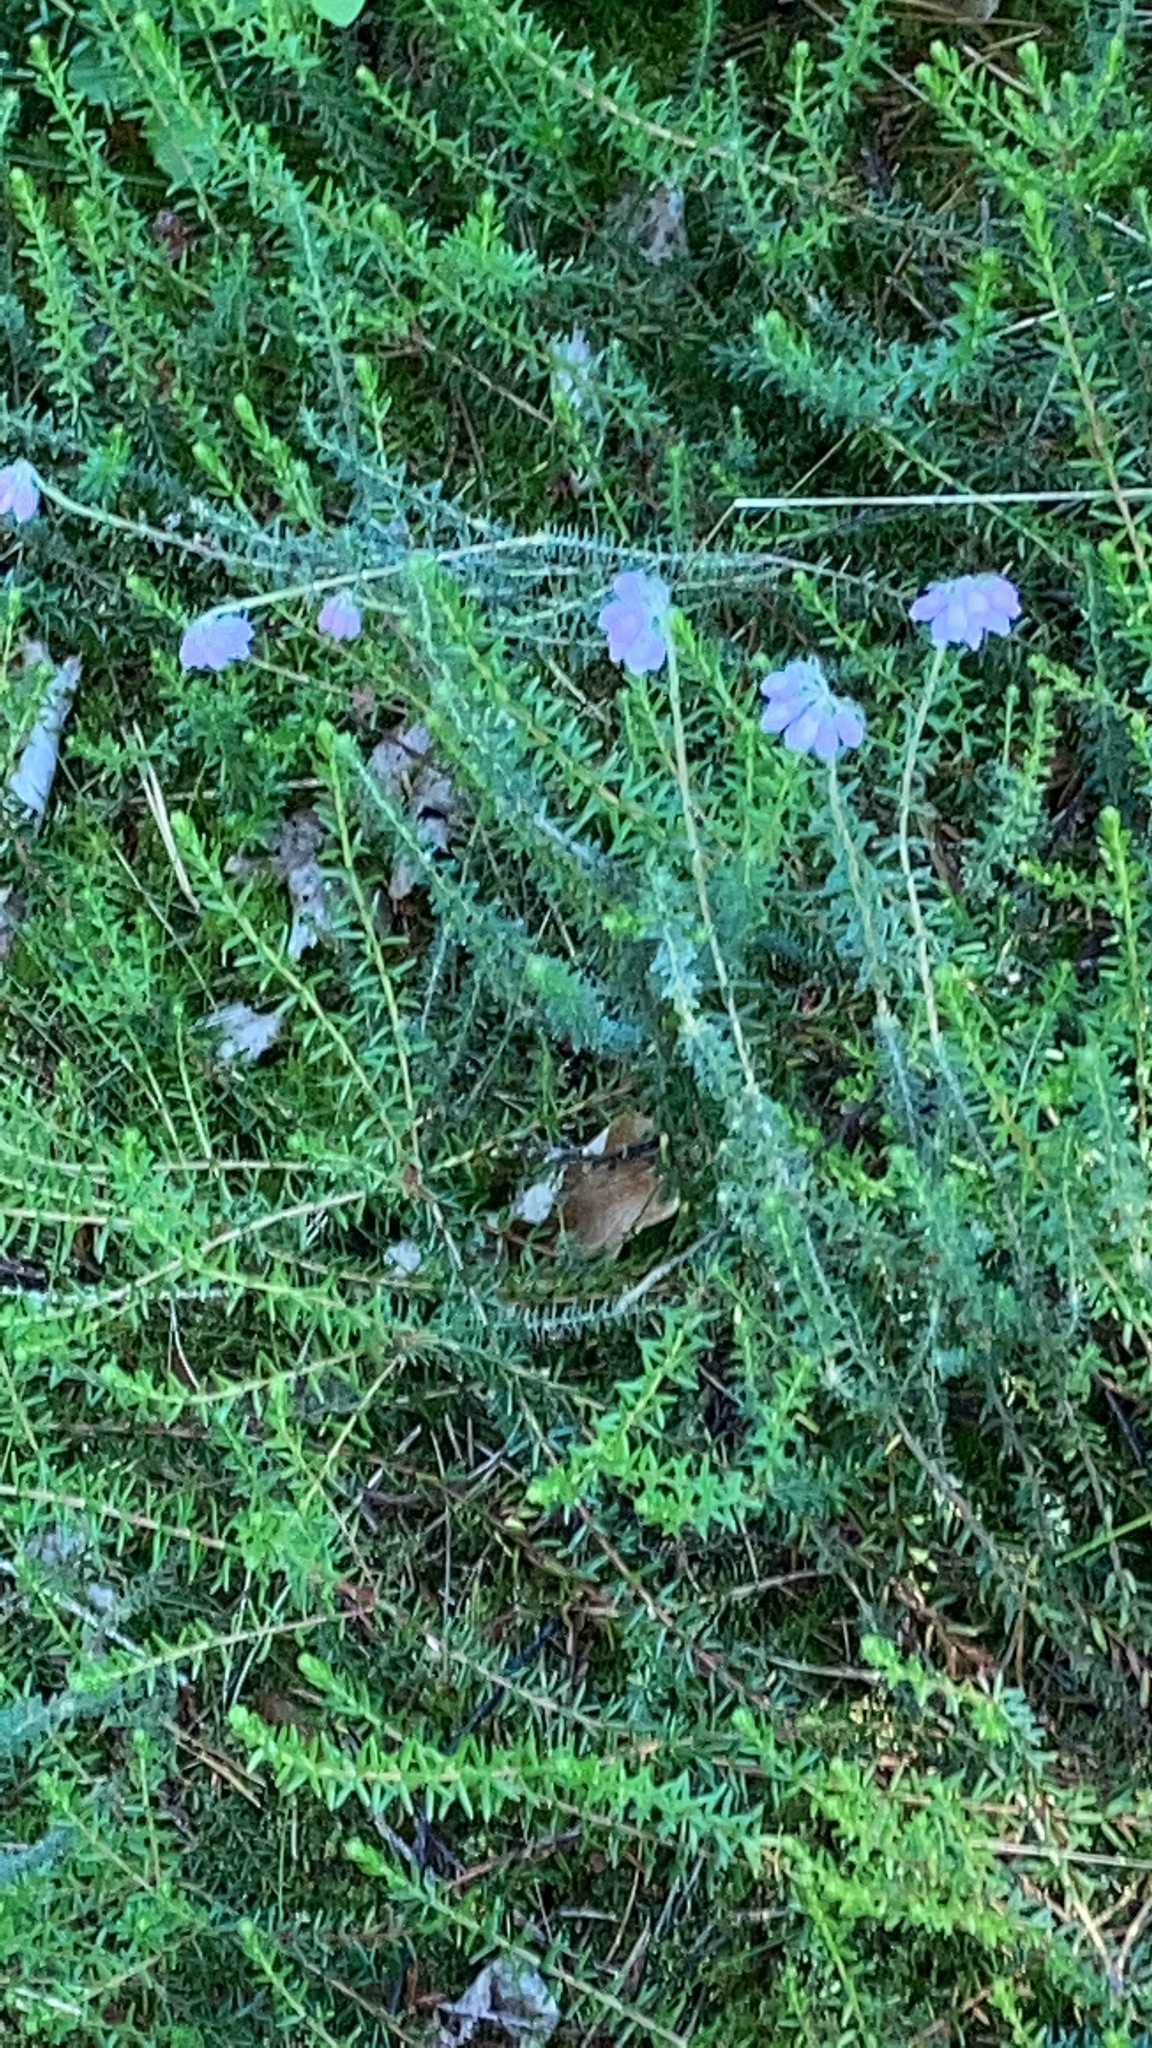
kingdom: Plantae
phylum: Tracheophyta
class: Magnoliopsida
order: Ericales
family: Ericaceae
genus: Erica
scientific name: Erica tetralix
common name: Cross-leaved heath
